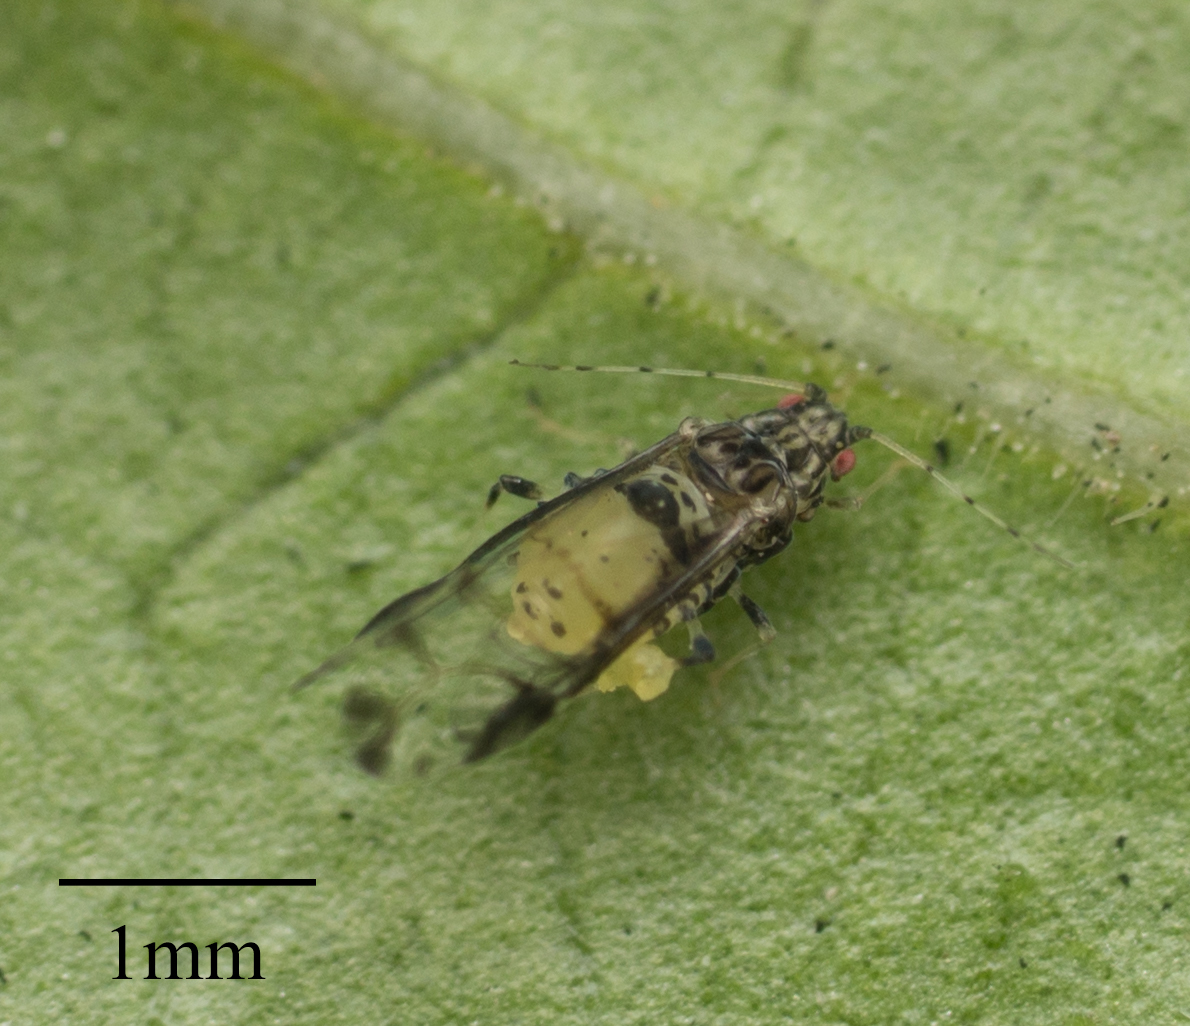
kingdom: Animalia
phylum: Arthropoda
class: Insecta
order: Hemiptera
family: Aphididae
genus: Sarucallis
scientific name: Sarucallis kahawaluokalani
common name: Crapemyrtle aphid
